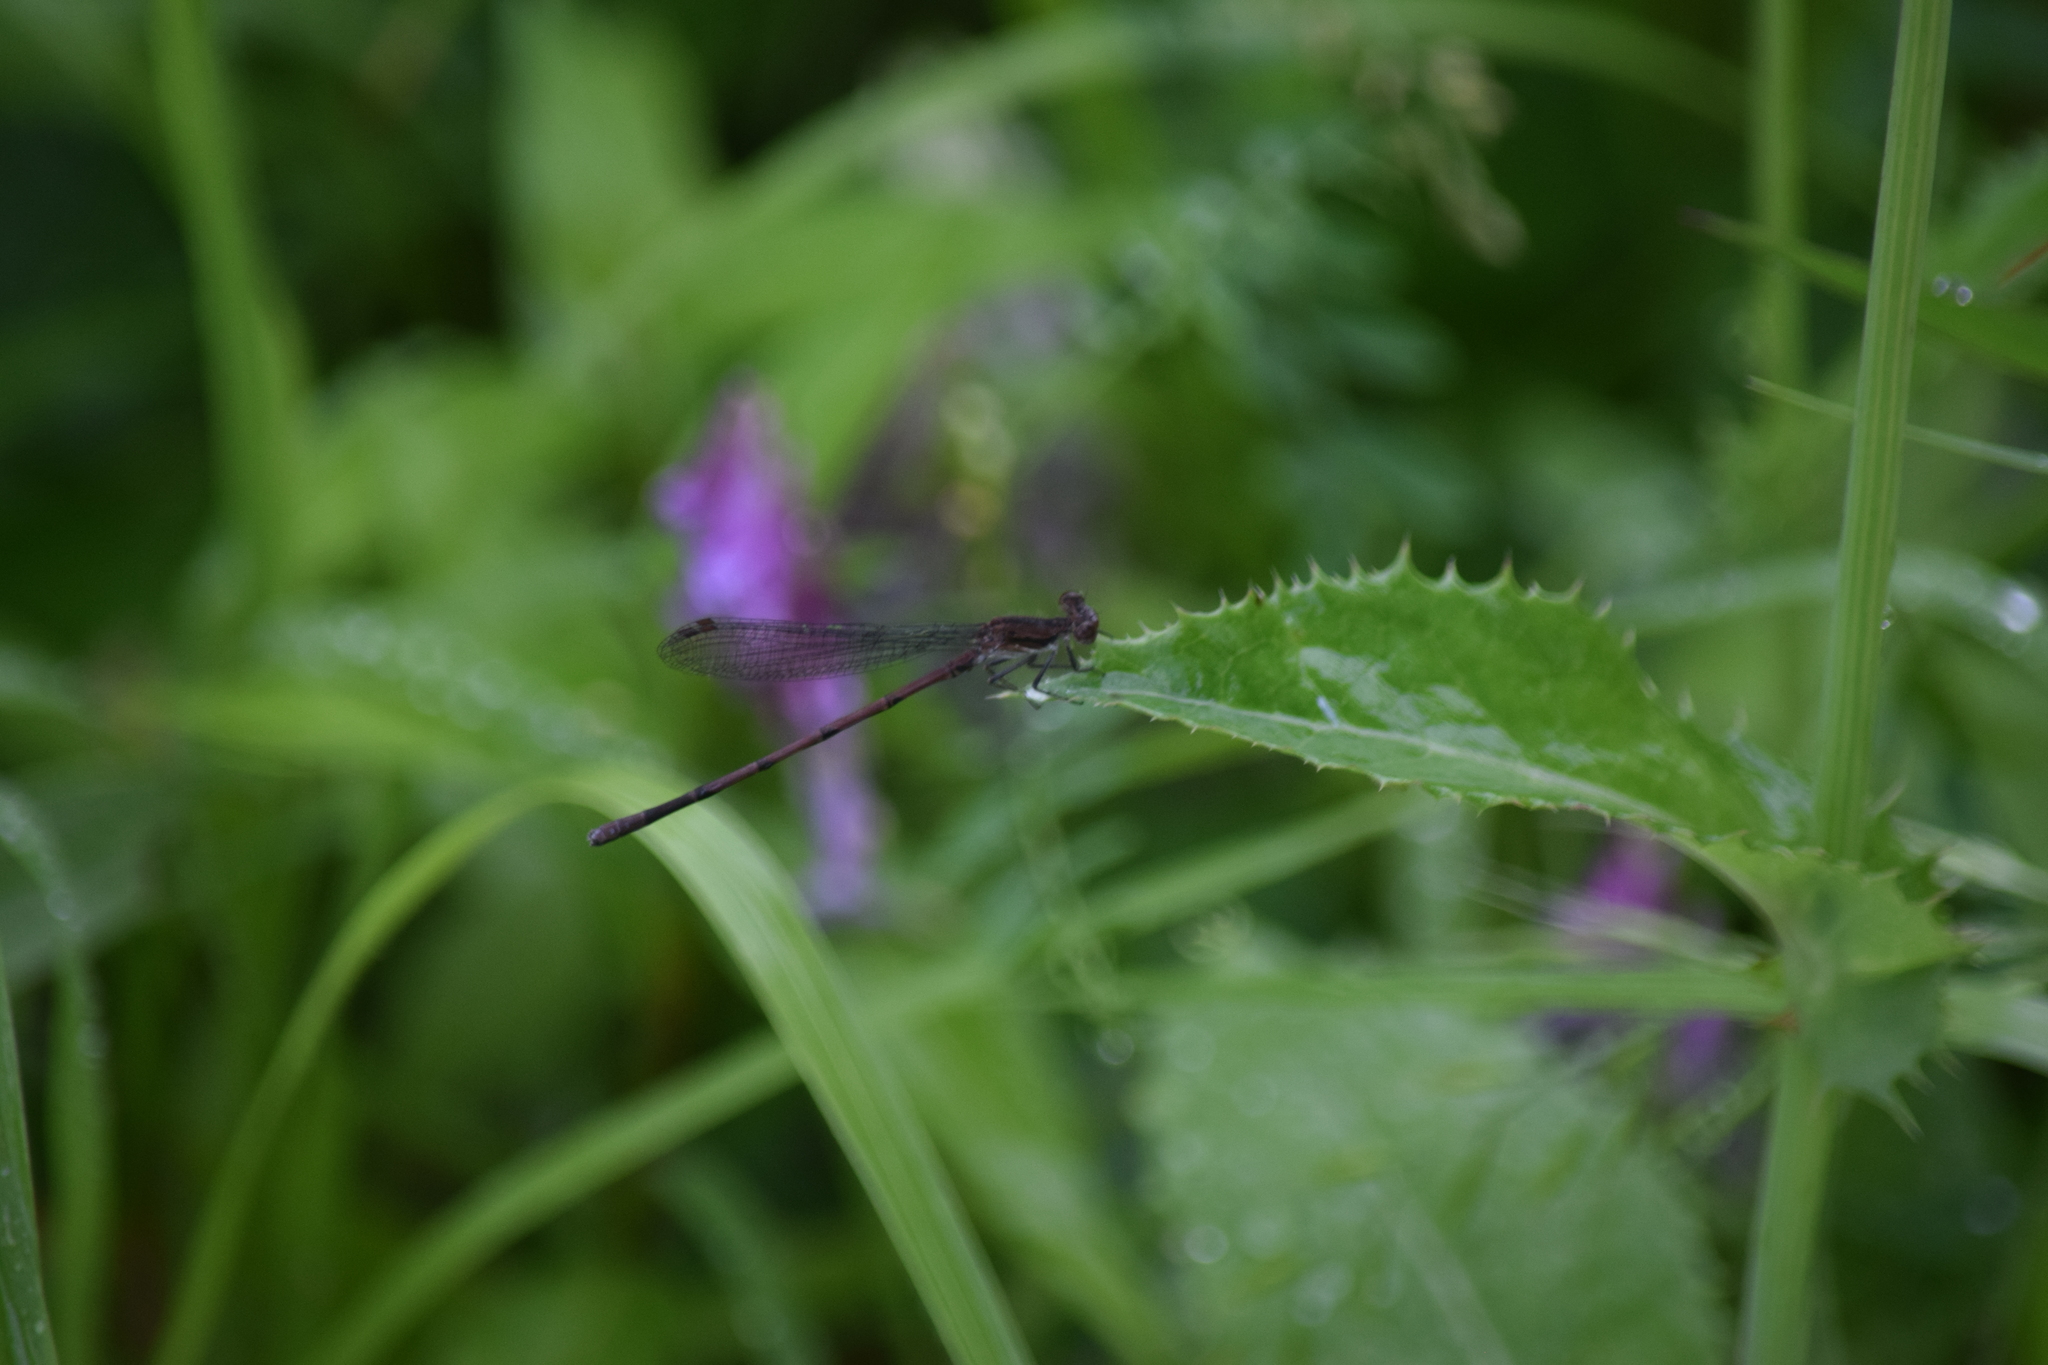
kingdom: Animalia
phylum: Arthropoda
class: Insecta
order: Odonata
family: Coenagrionidae
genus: Argia
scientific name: Argia fumipennis
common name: Variable dancer
